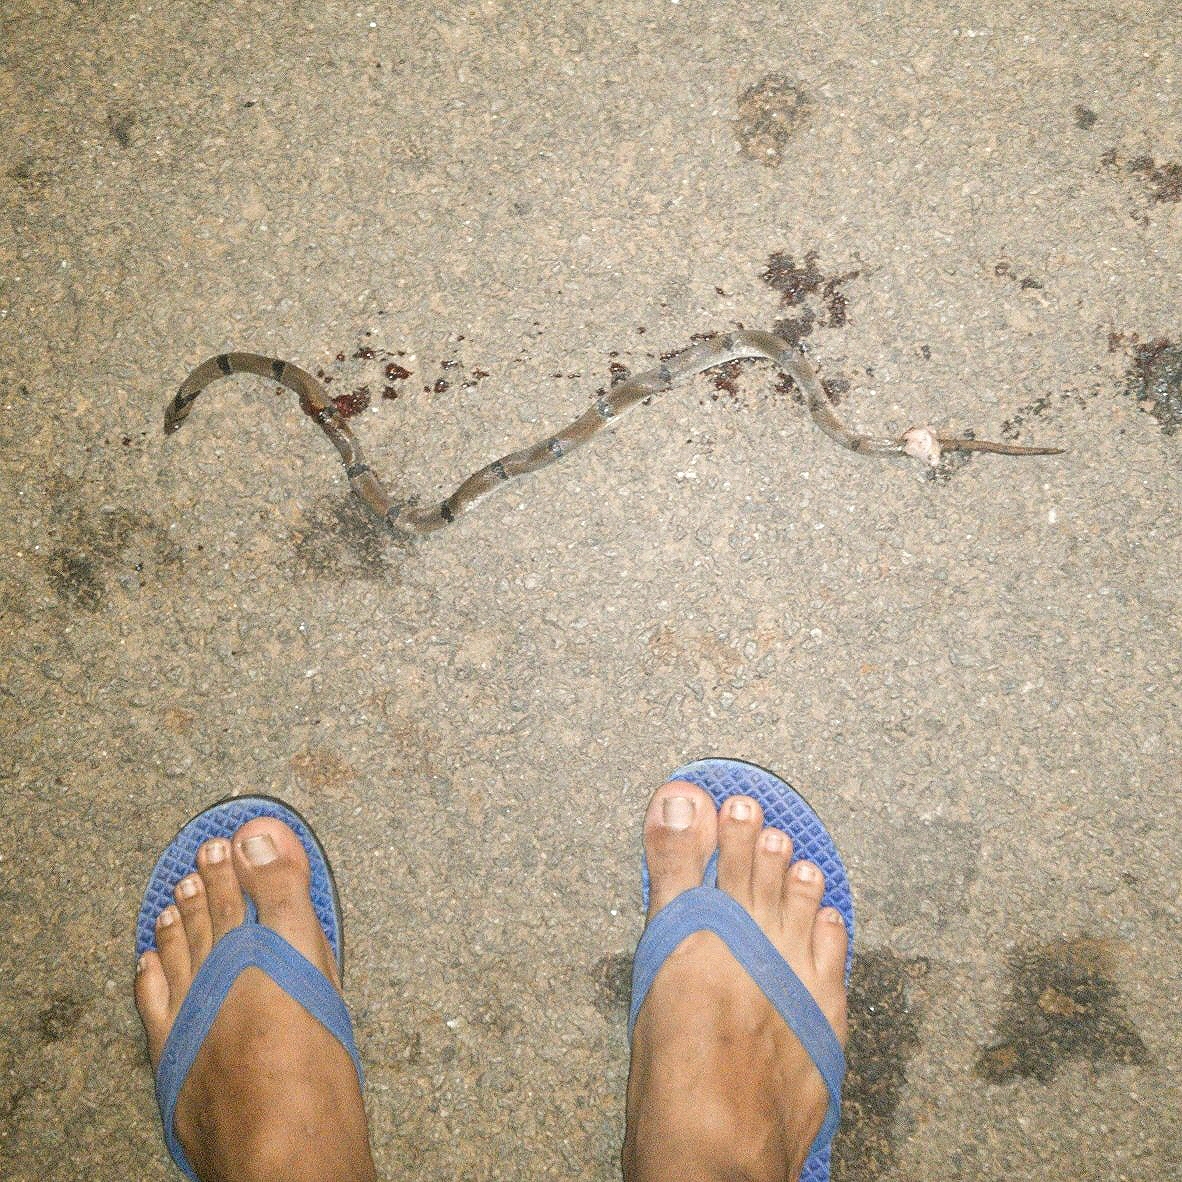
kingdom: Animalia
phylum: Chordata
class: Squamata
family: Colubridae
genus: Oligodon
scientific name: Oligodon arnensis
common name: Banded kukri
